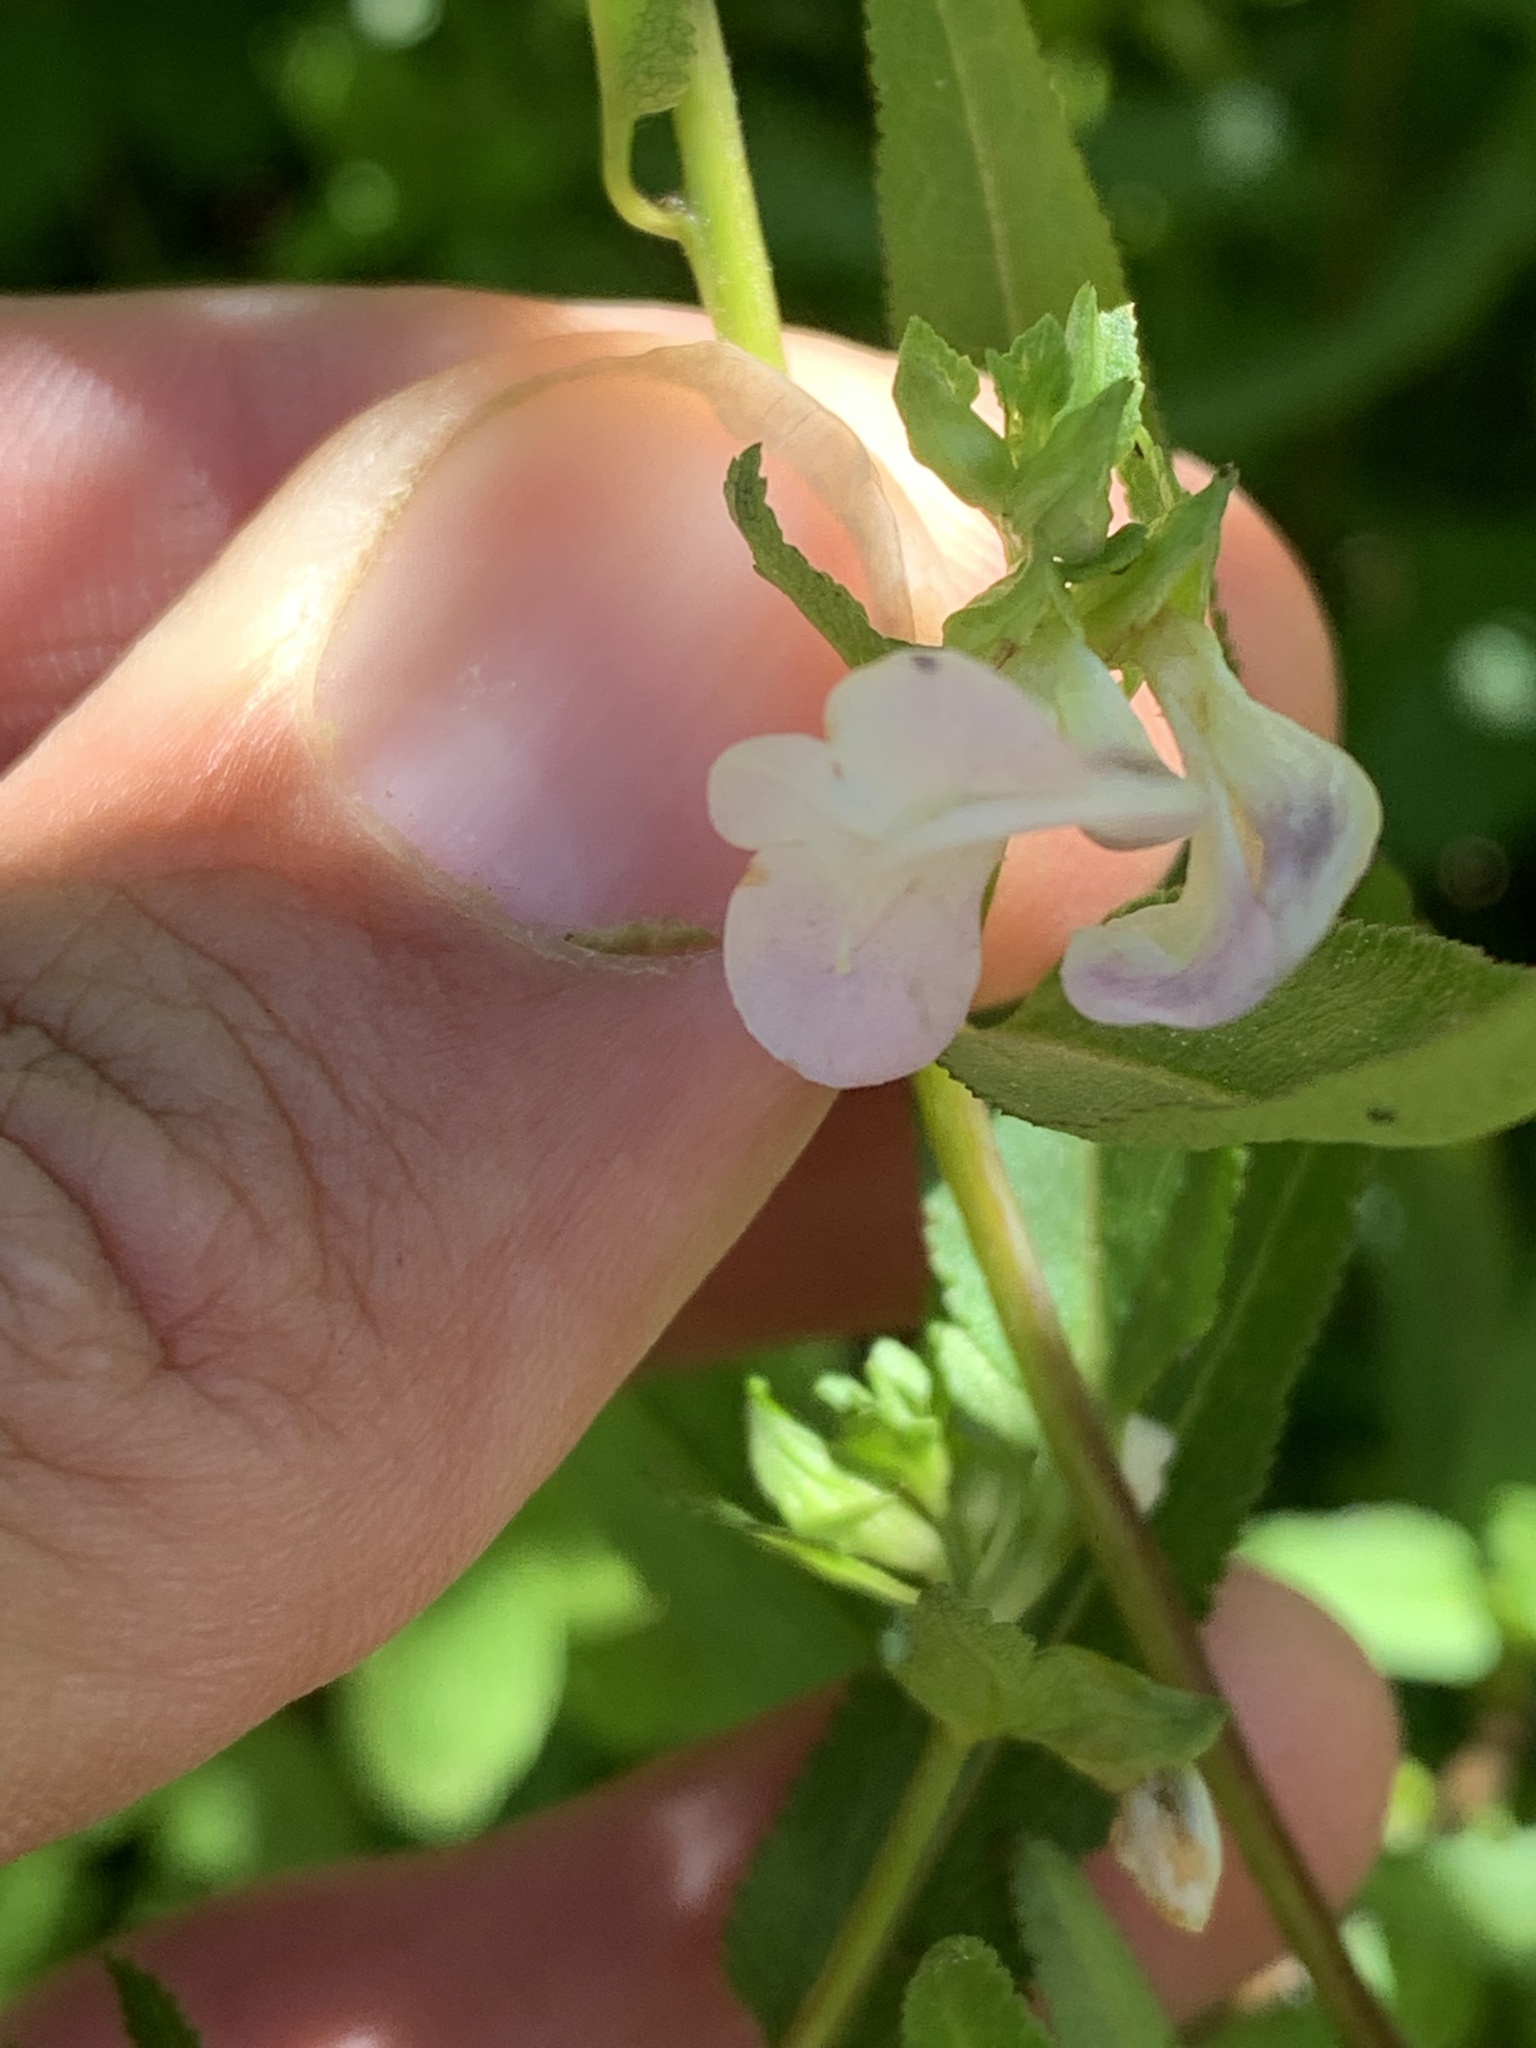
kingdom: Plantae
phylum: Tracheophyta
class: Magnoliopsida
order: Lamiales
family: Orobanchaceae
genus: Pedicularis
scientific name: Pedicularis racemosa
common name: Leafy lousewort
